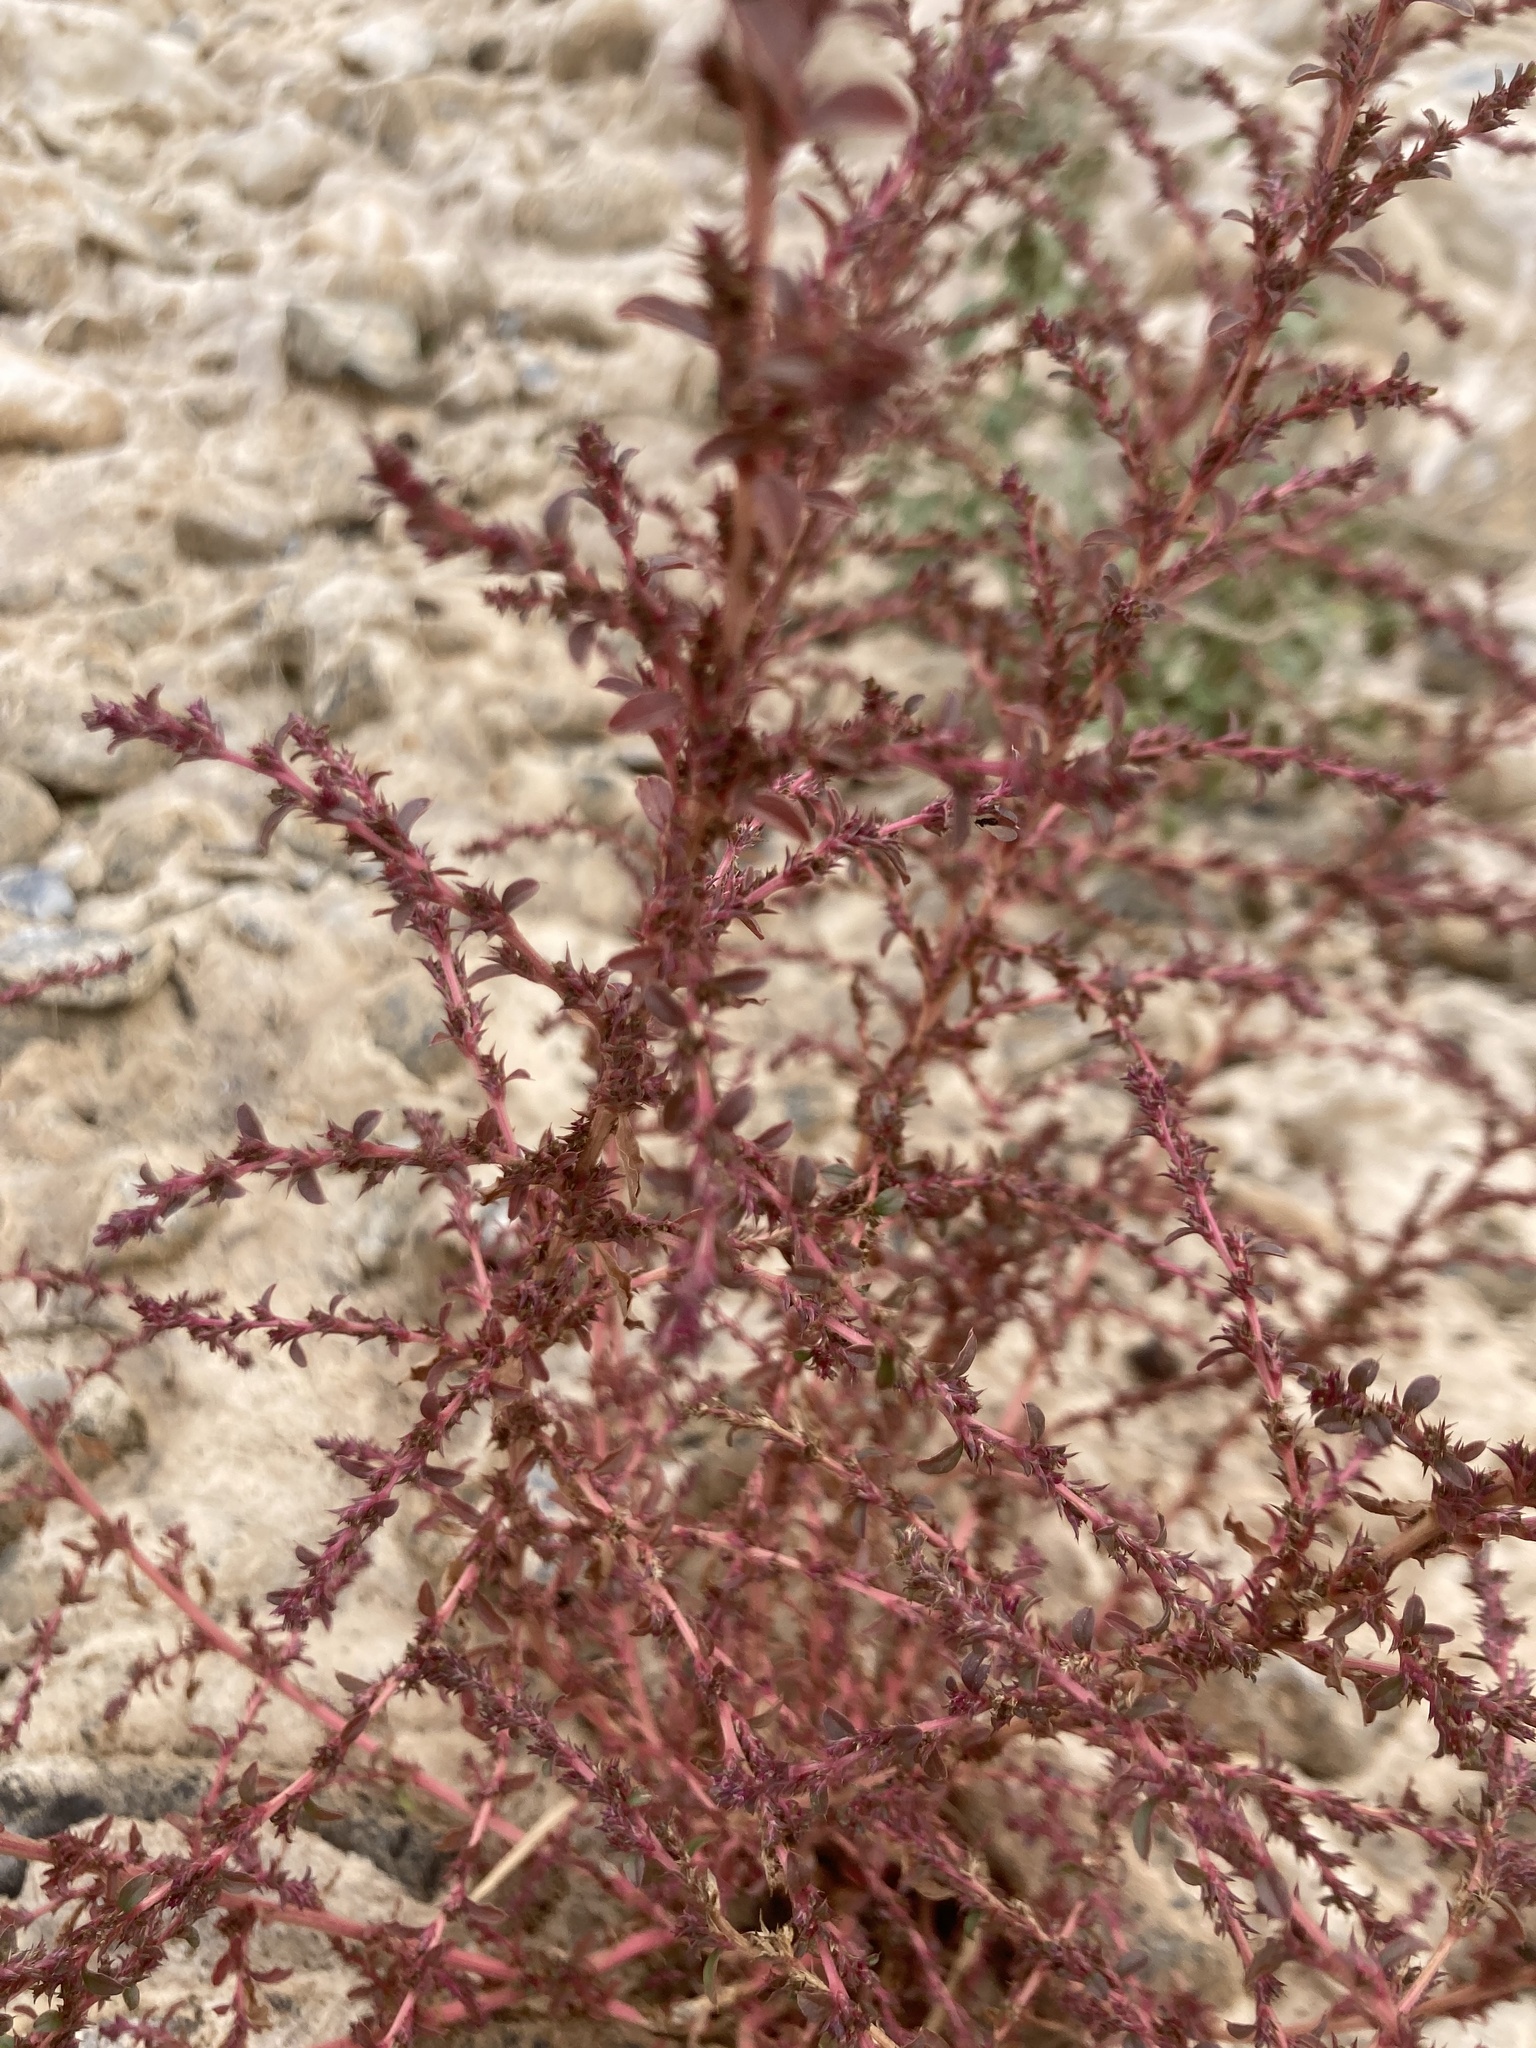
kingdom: Plantae
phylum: Tracheophyta
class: Magnoliopsida
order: Caryophyllales
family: Amaranthaceae
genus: Amaranthus
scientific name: Amaranthus albus
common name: White pigweed
